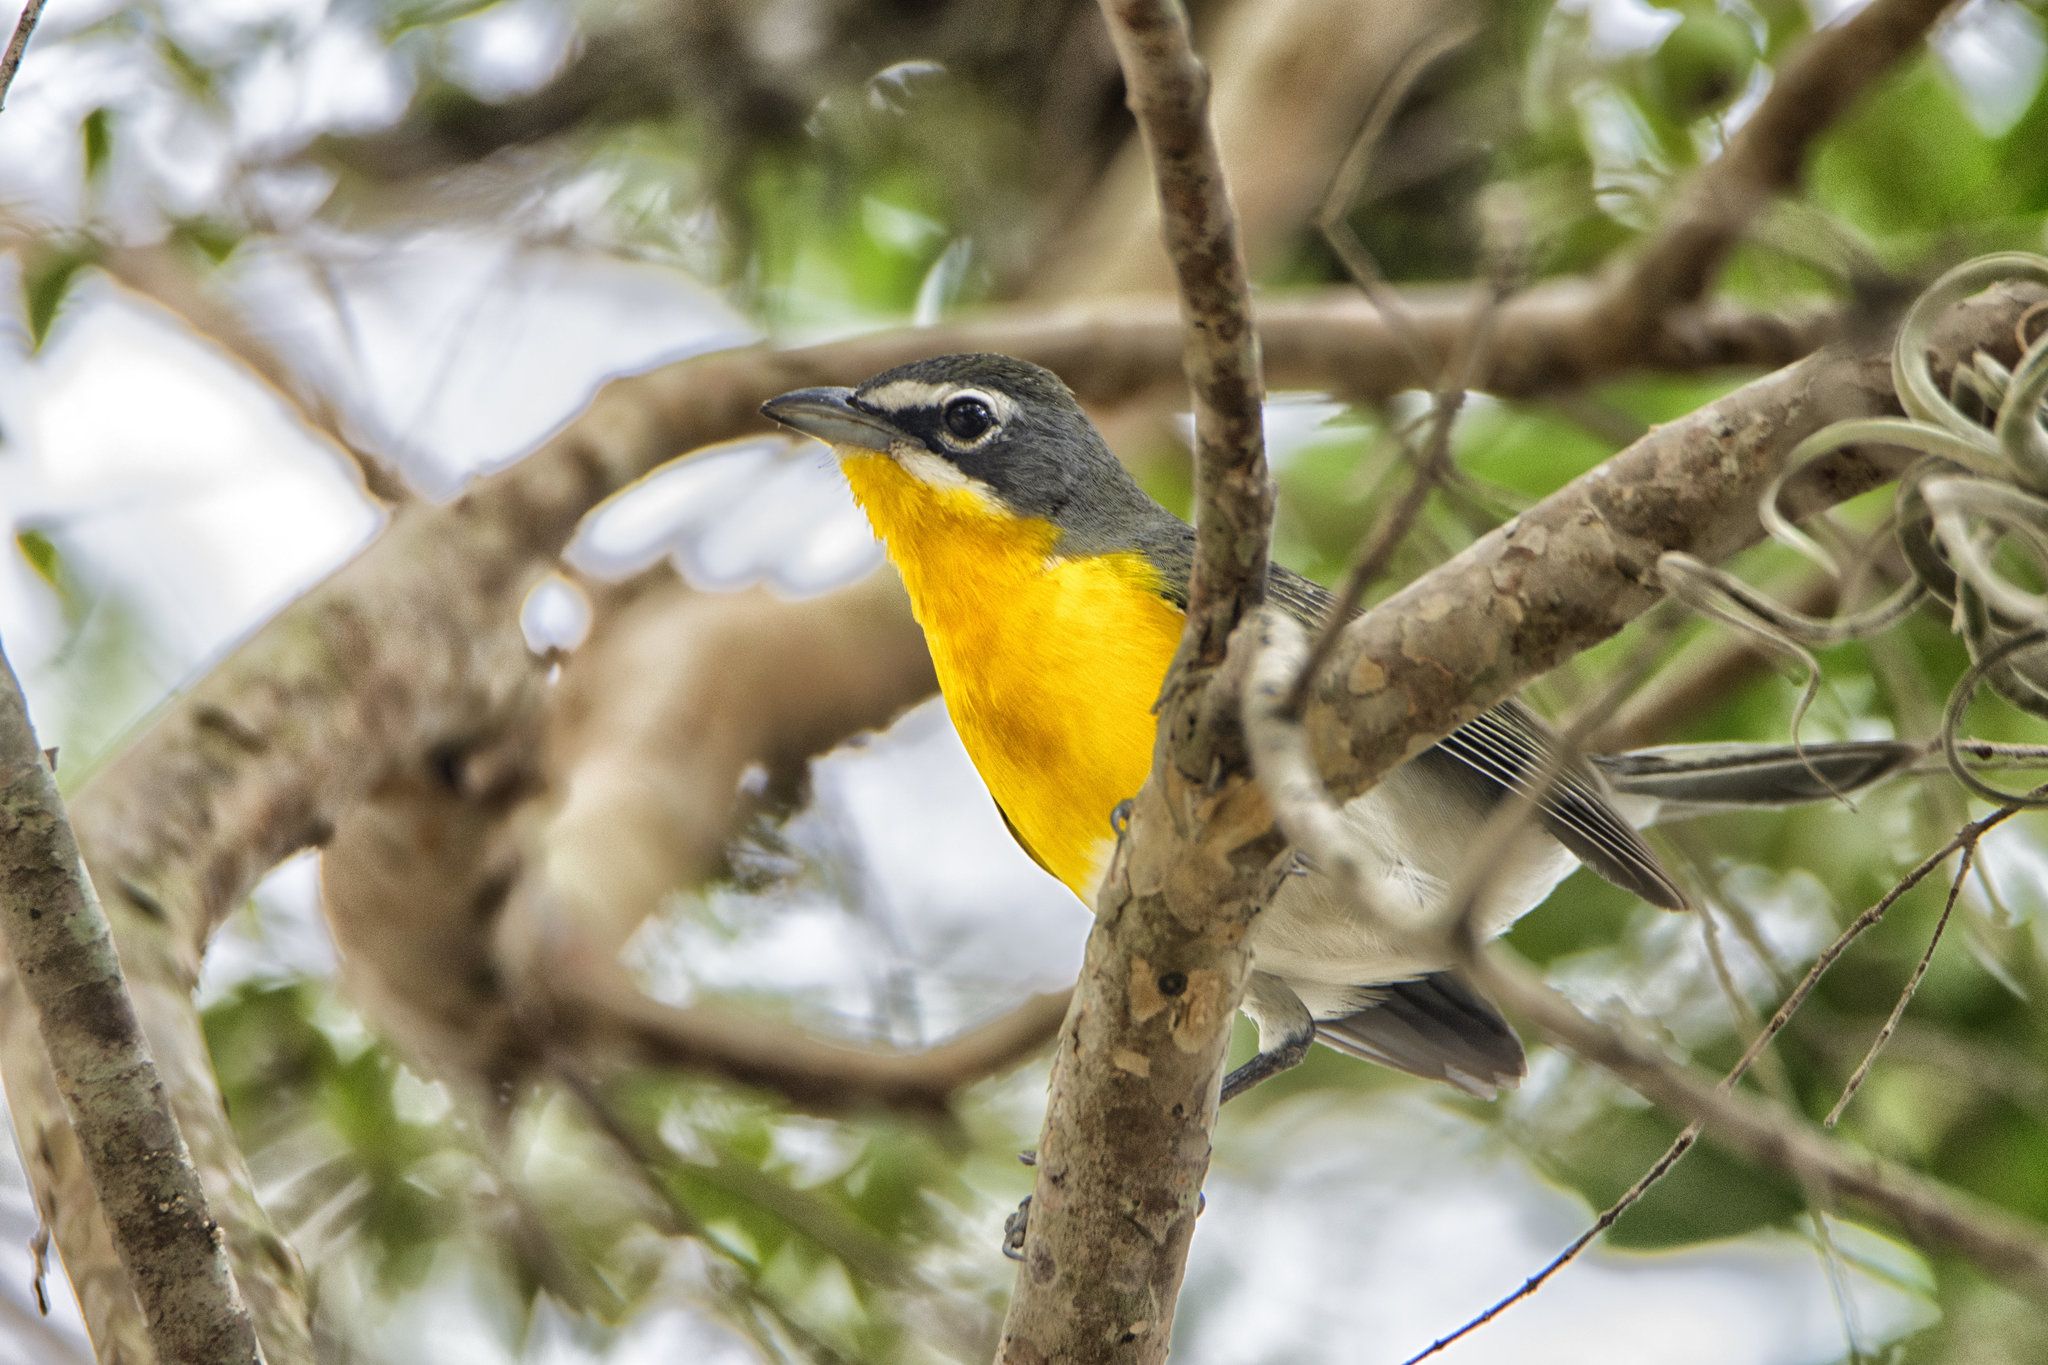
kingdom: Animalia
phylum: Chordata
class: Aves
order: Passeriformes
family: Parulidae
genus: Icteria
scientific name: Icteria virens
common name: Yellow-breasted chat
